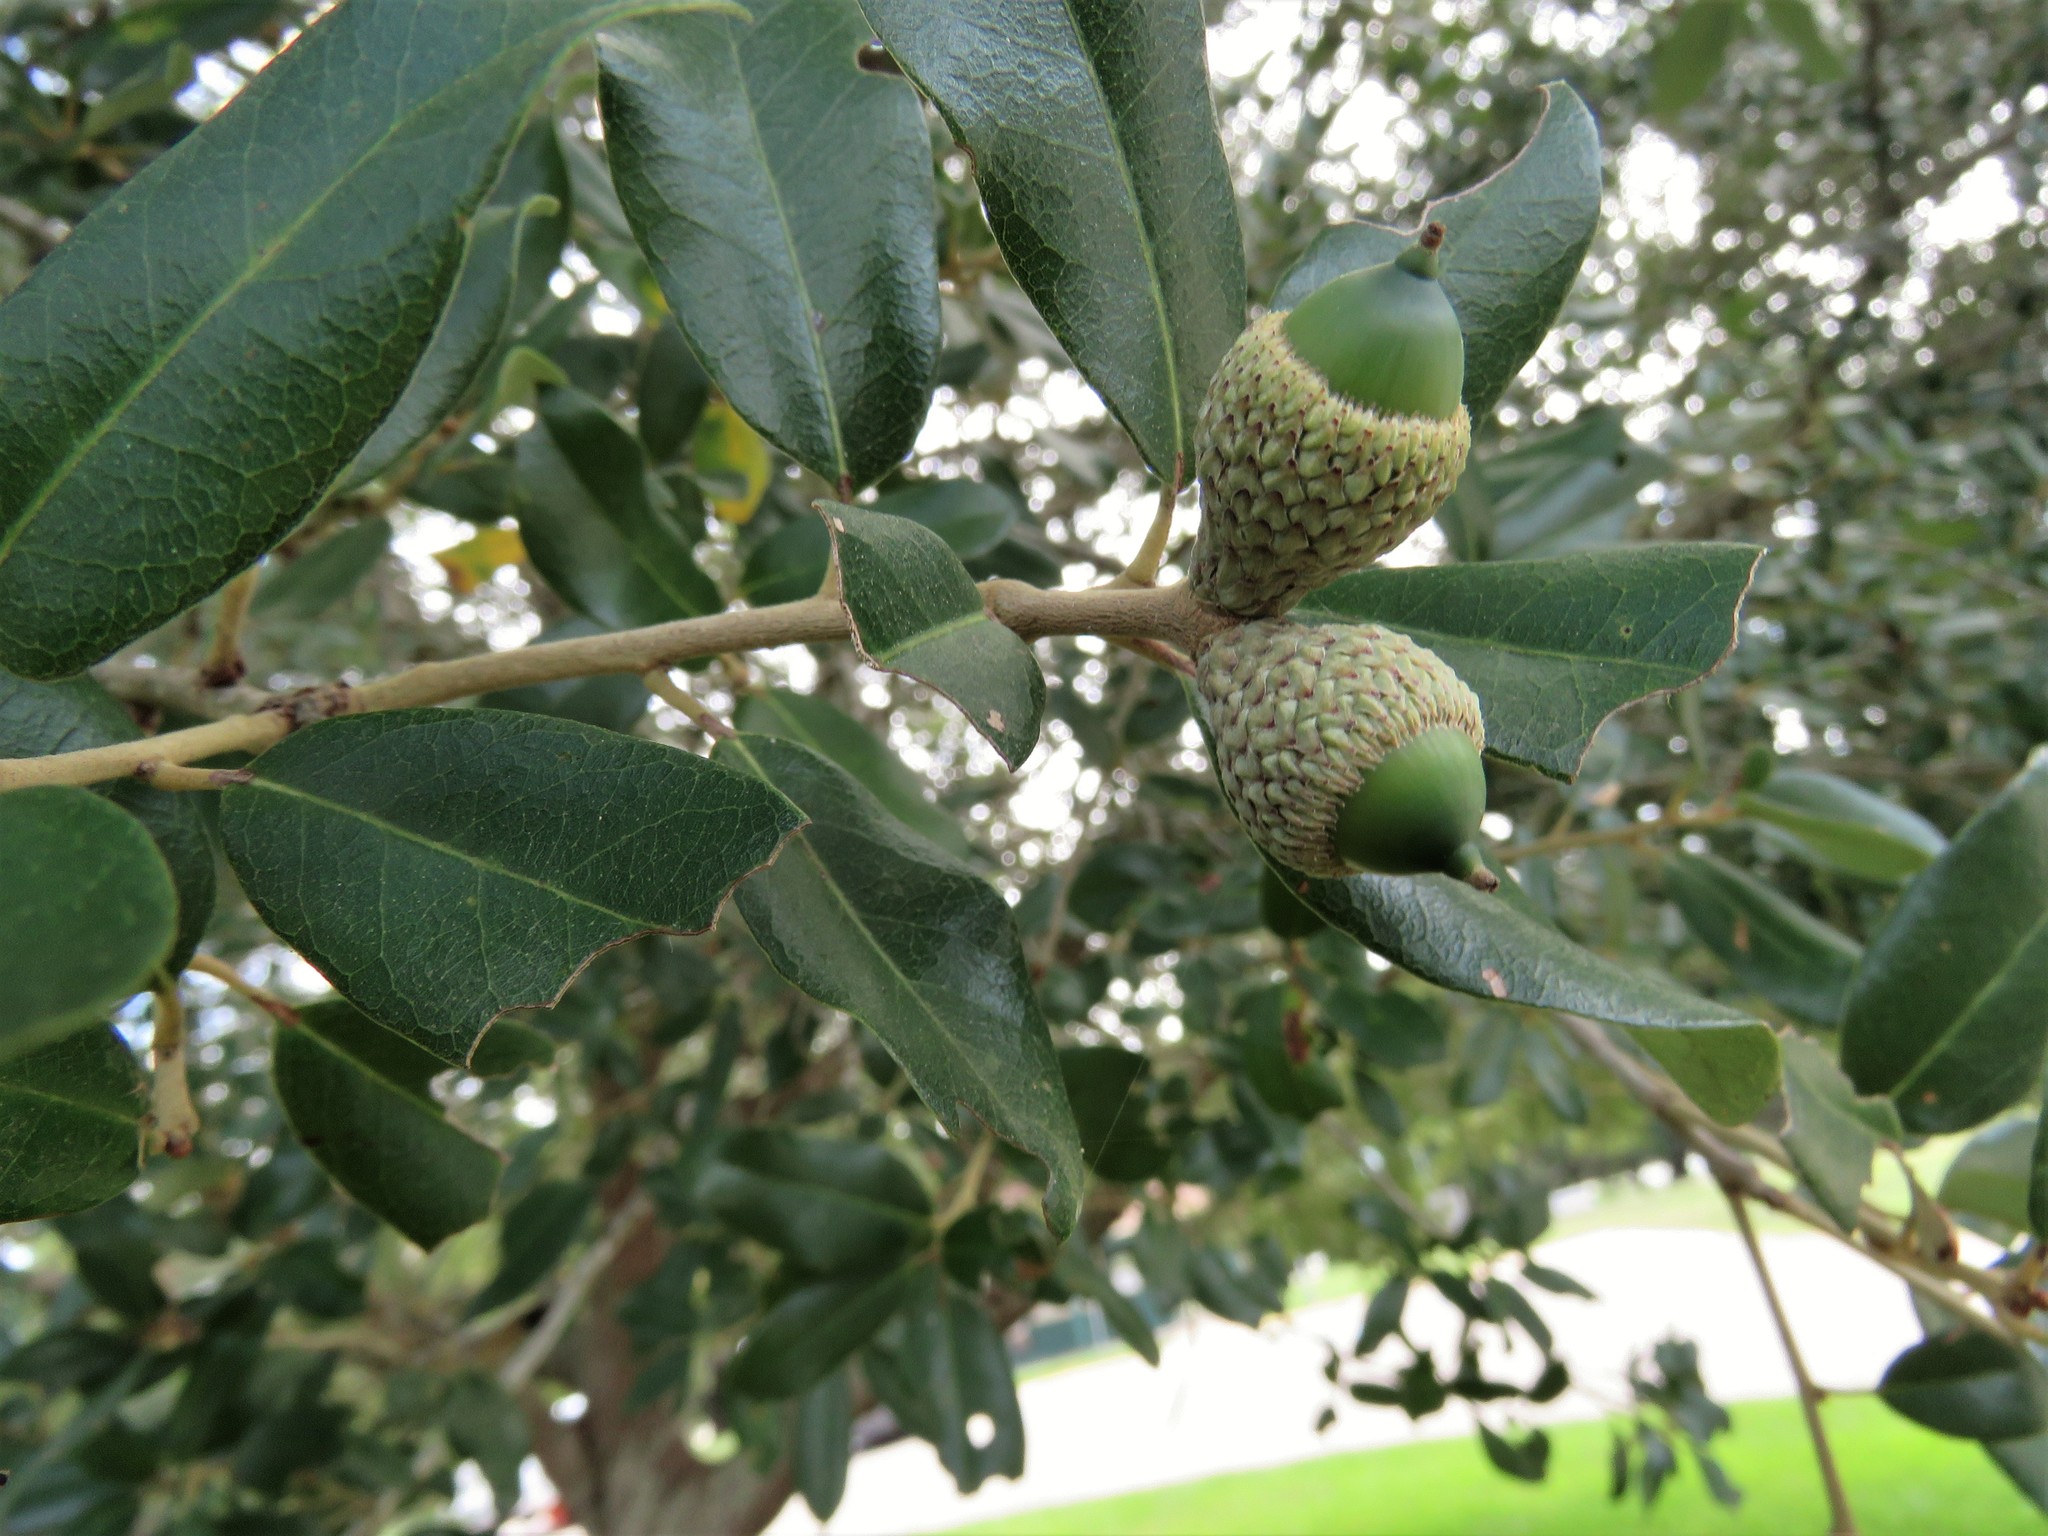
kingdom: Plantae
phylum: Tracheophyta
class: Magnoliopsida
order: Fagales
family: Fagaceae
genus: Quercus
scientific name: Quercus virginiana
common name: Southern live oak
